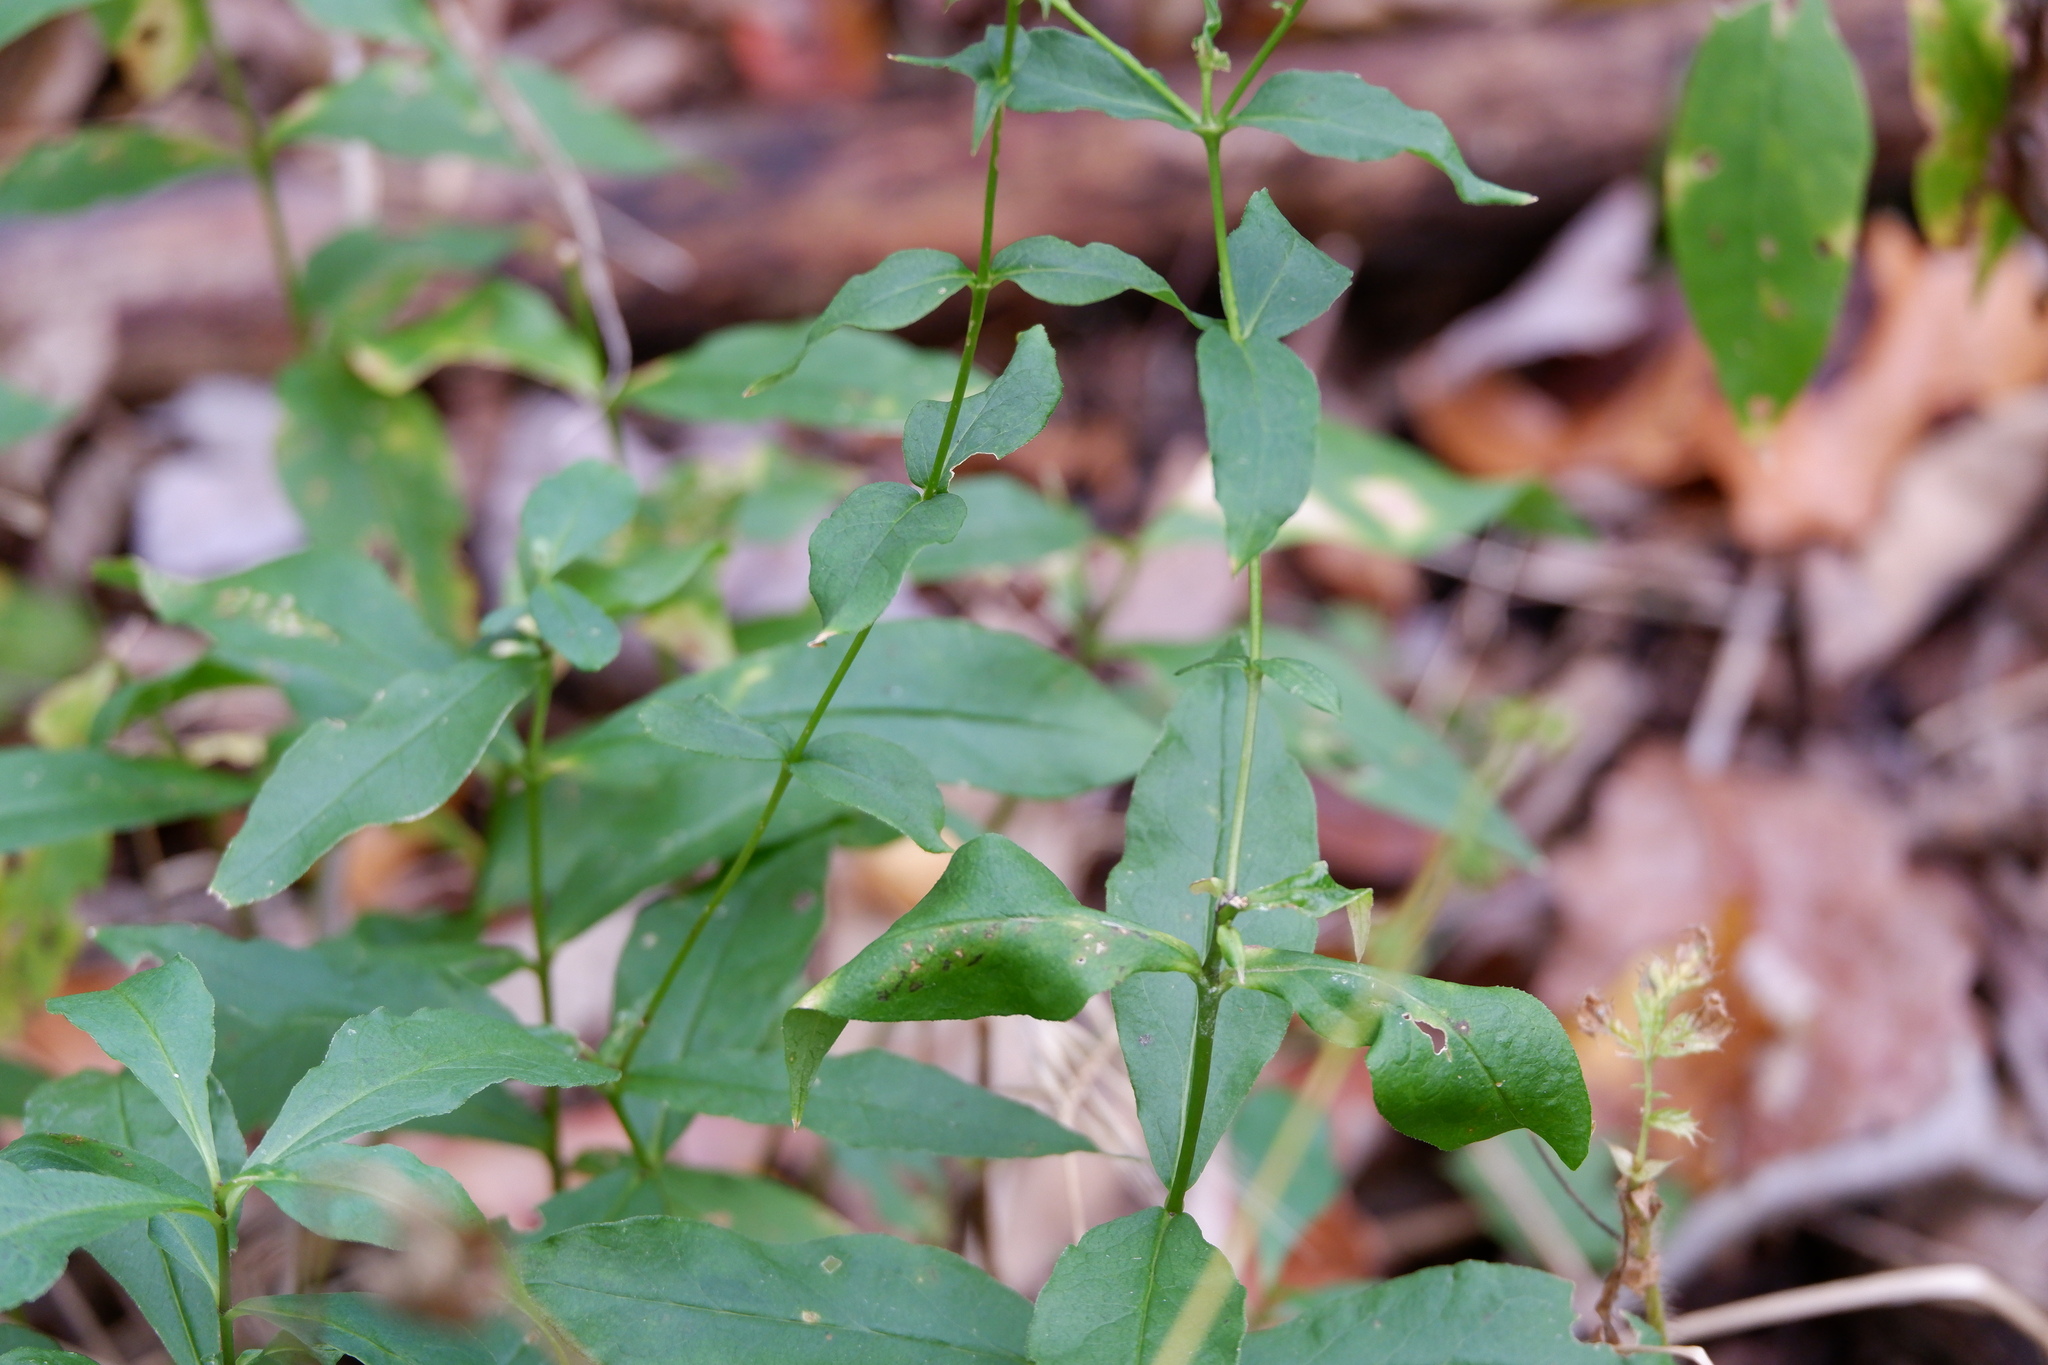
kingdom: Plantae
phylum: Tracheophyta
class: Magnoliopsida
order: Ericales
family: Polemoniaceae
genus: Phlox
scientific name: Phlox paniculata
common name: Fall phlox
